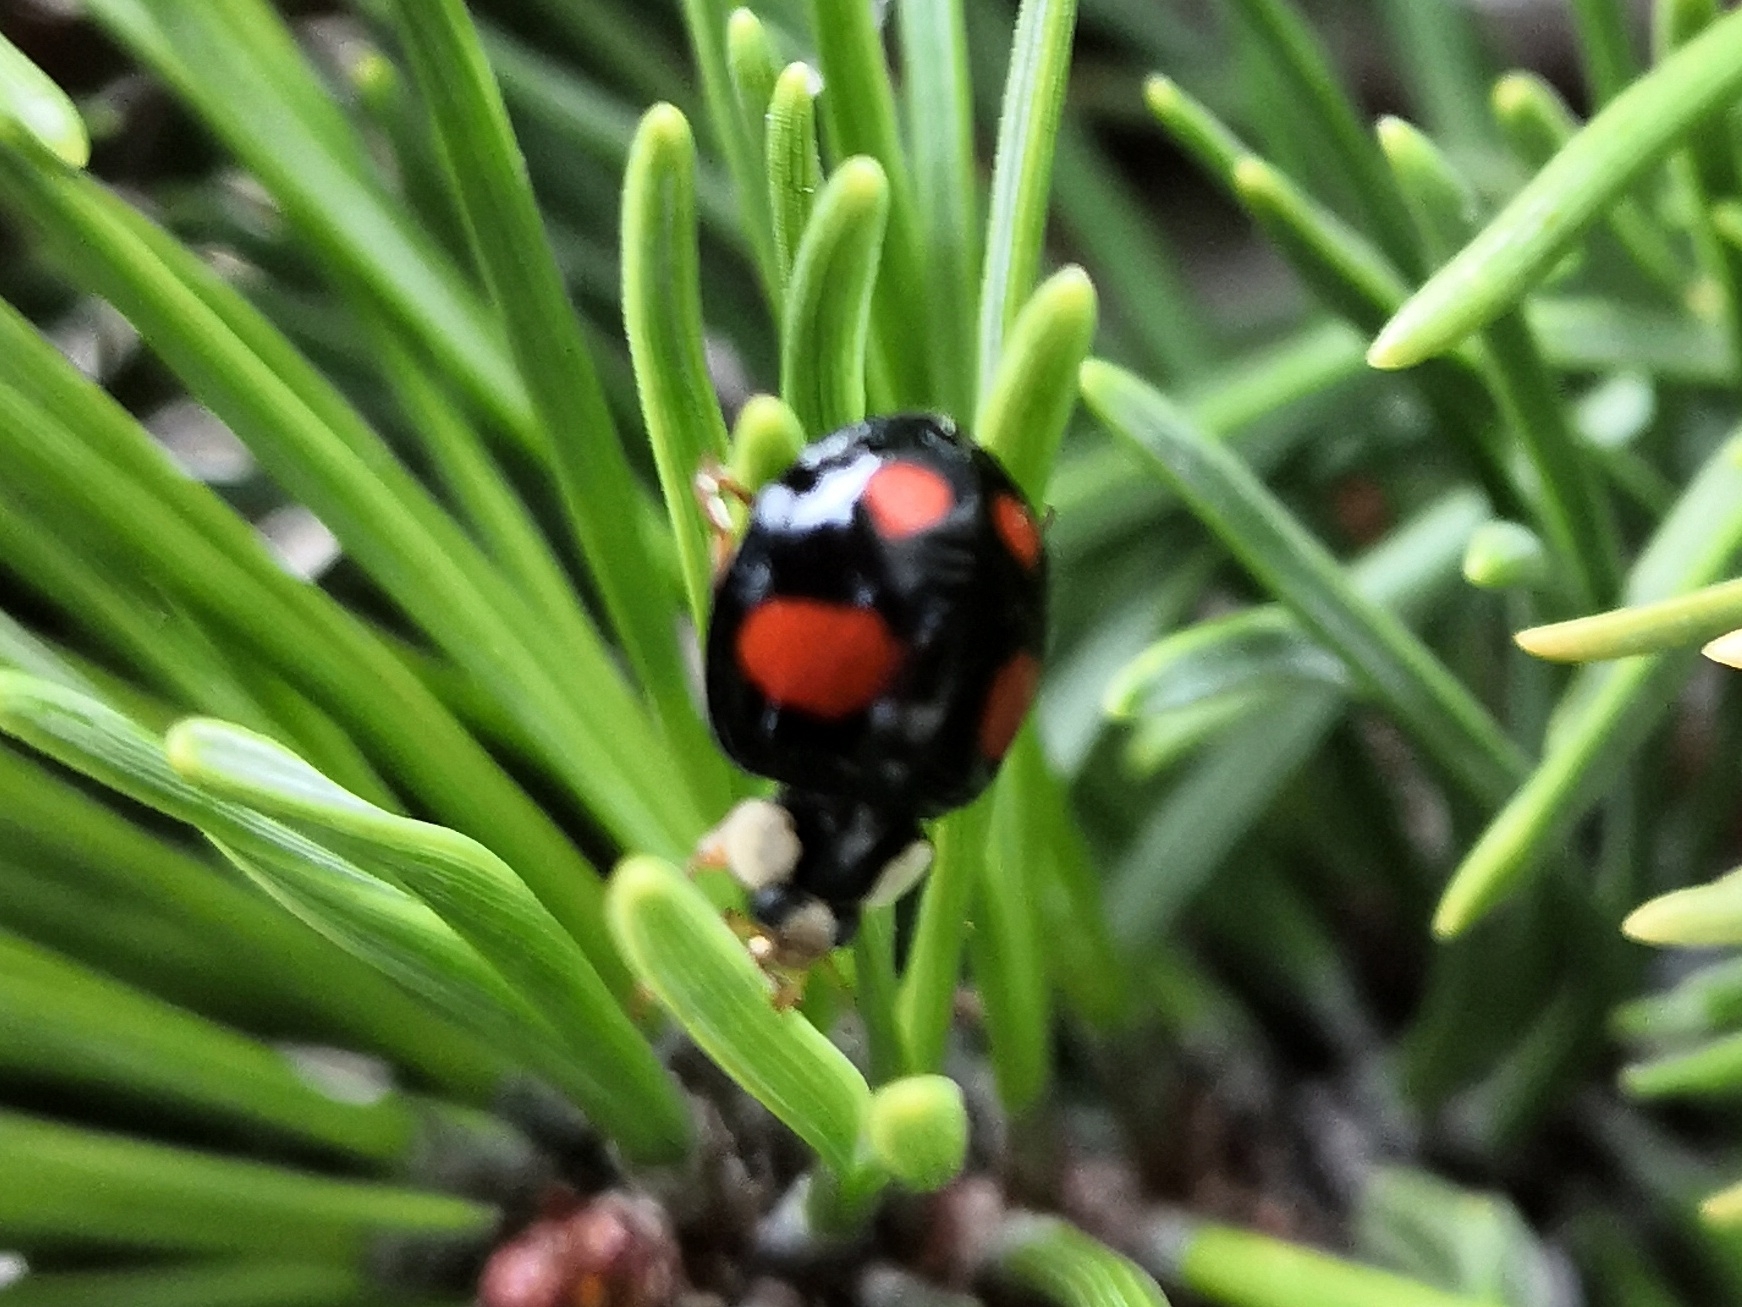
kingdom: Animalia
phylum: Arthropoda
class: Insecta
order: Coleoptera
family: Coccinellidae
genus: Harmonia
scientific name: Harmonia axyridis
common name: Harlequin ladybird
